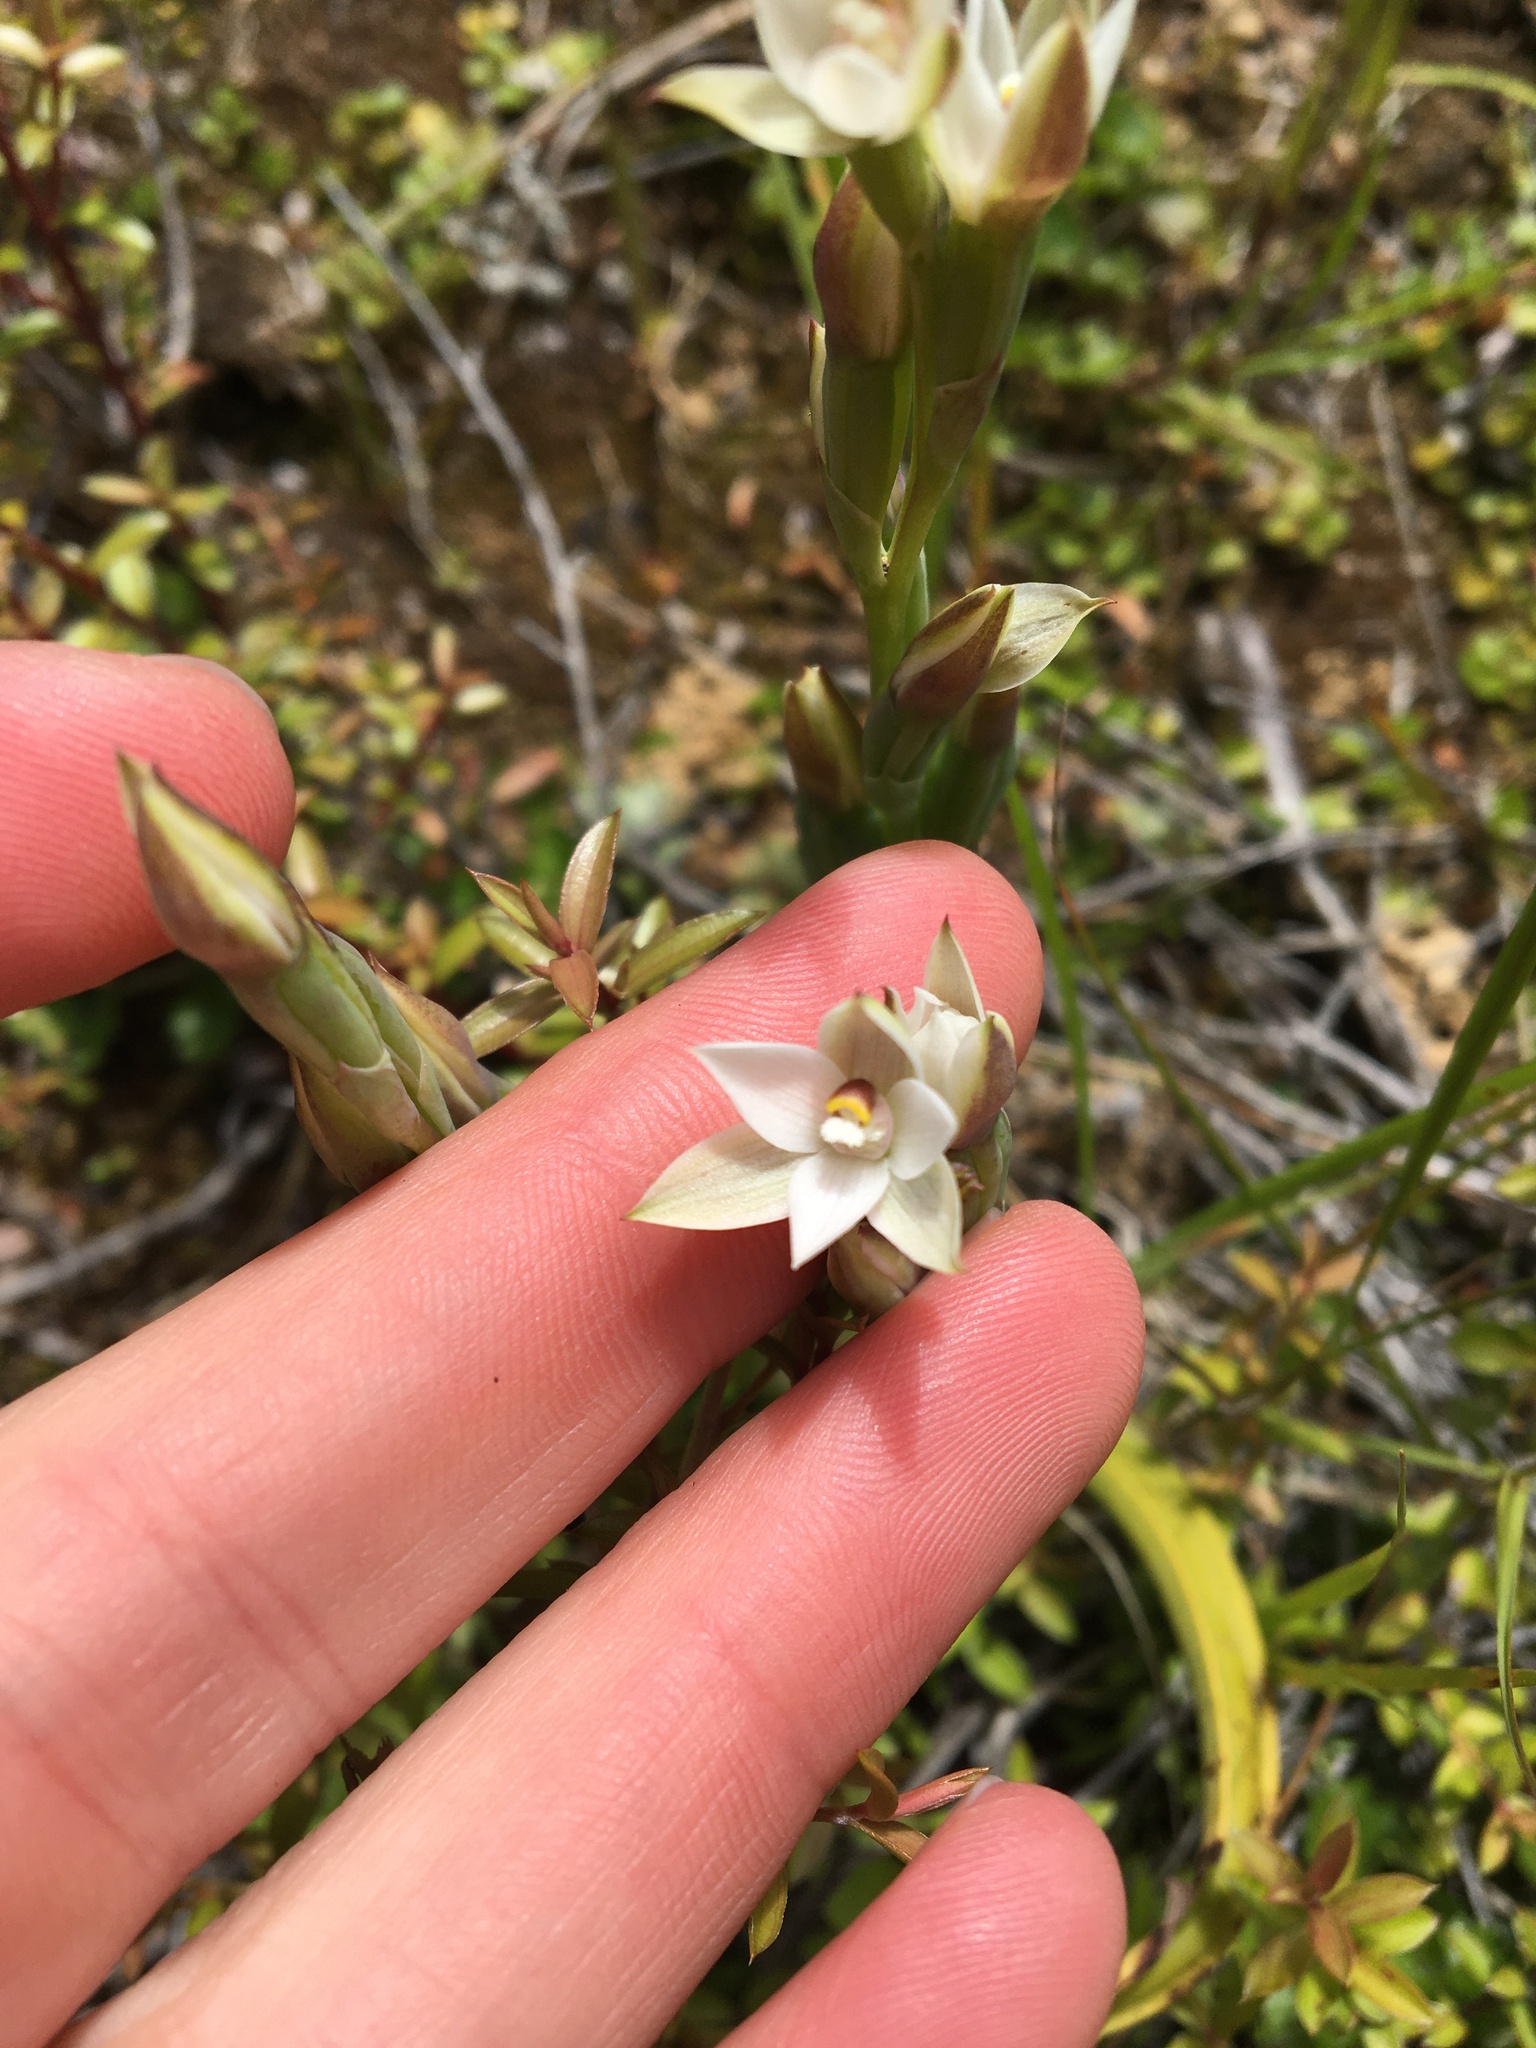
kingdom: Plantae
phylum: Tracheophyta
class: Liliopsida
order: Asparagales
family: Orchidaceae
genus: Thelymitra
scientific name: Thelymitra longifolia
